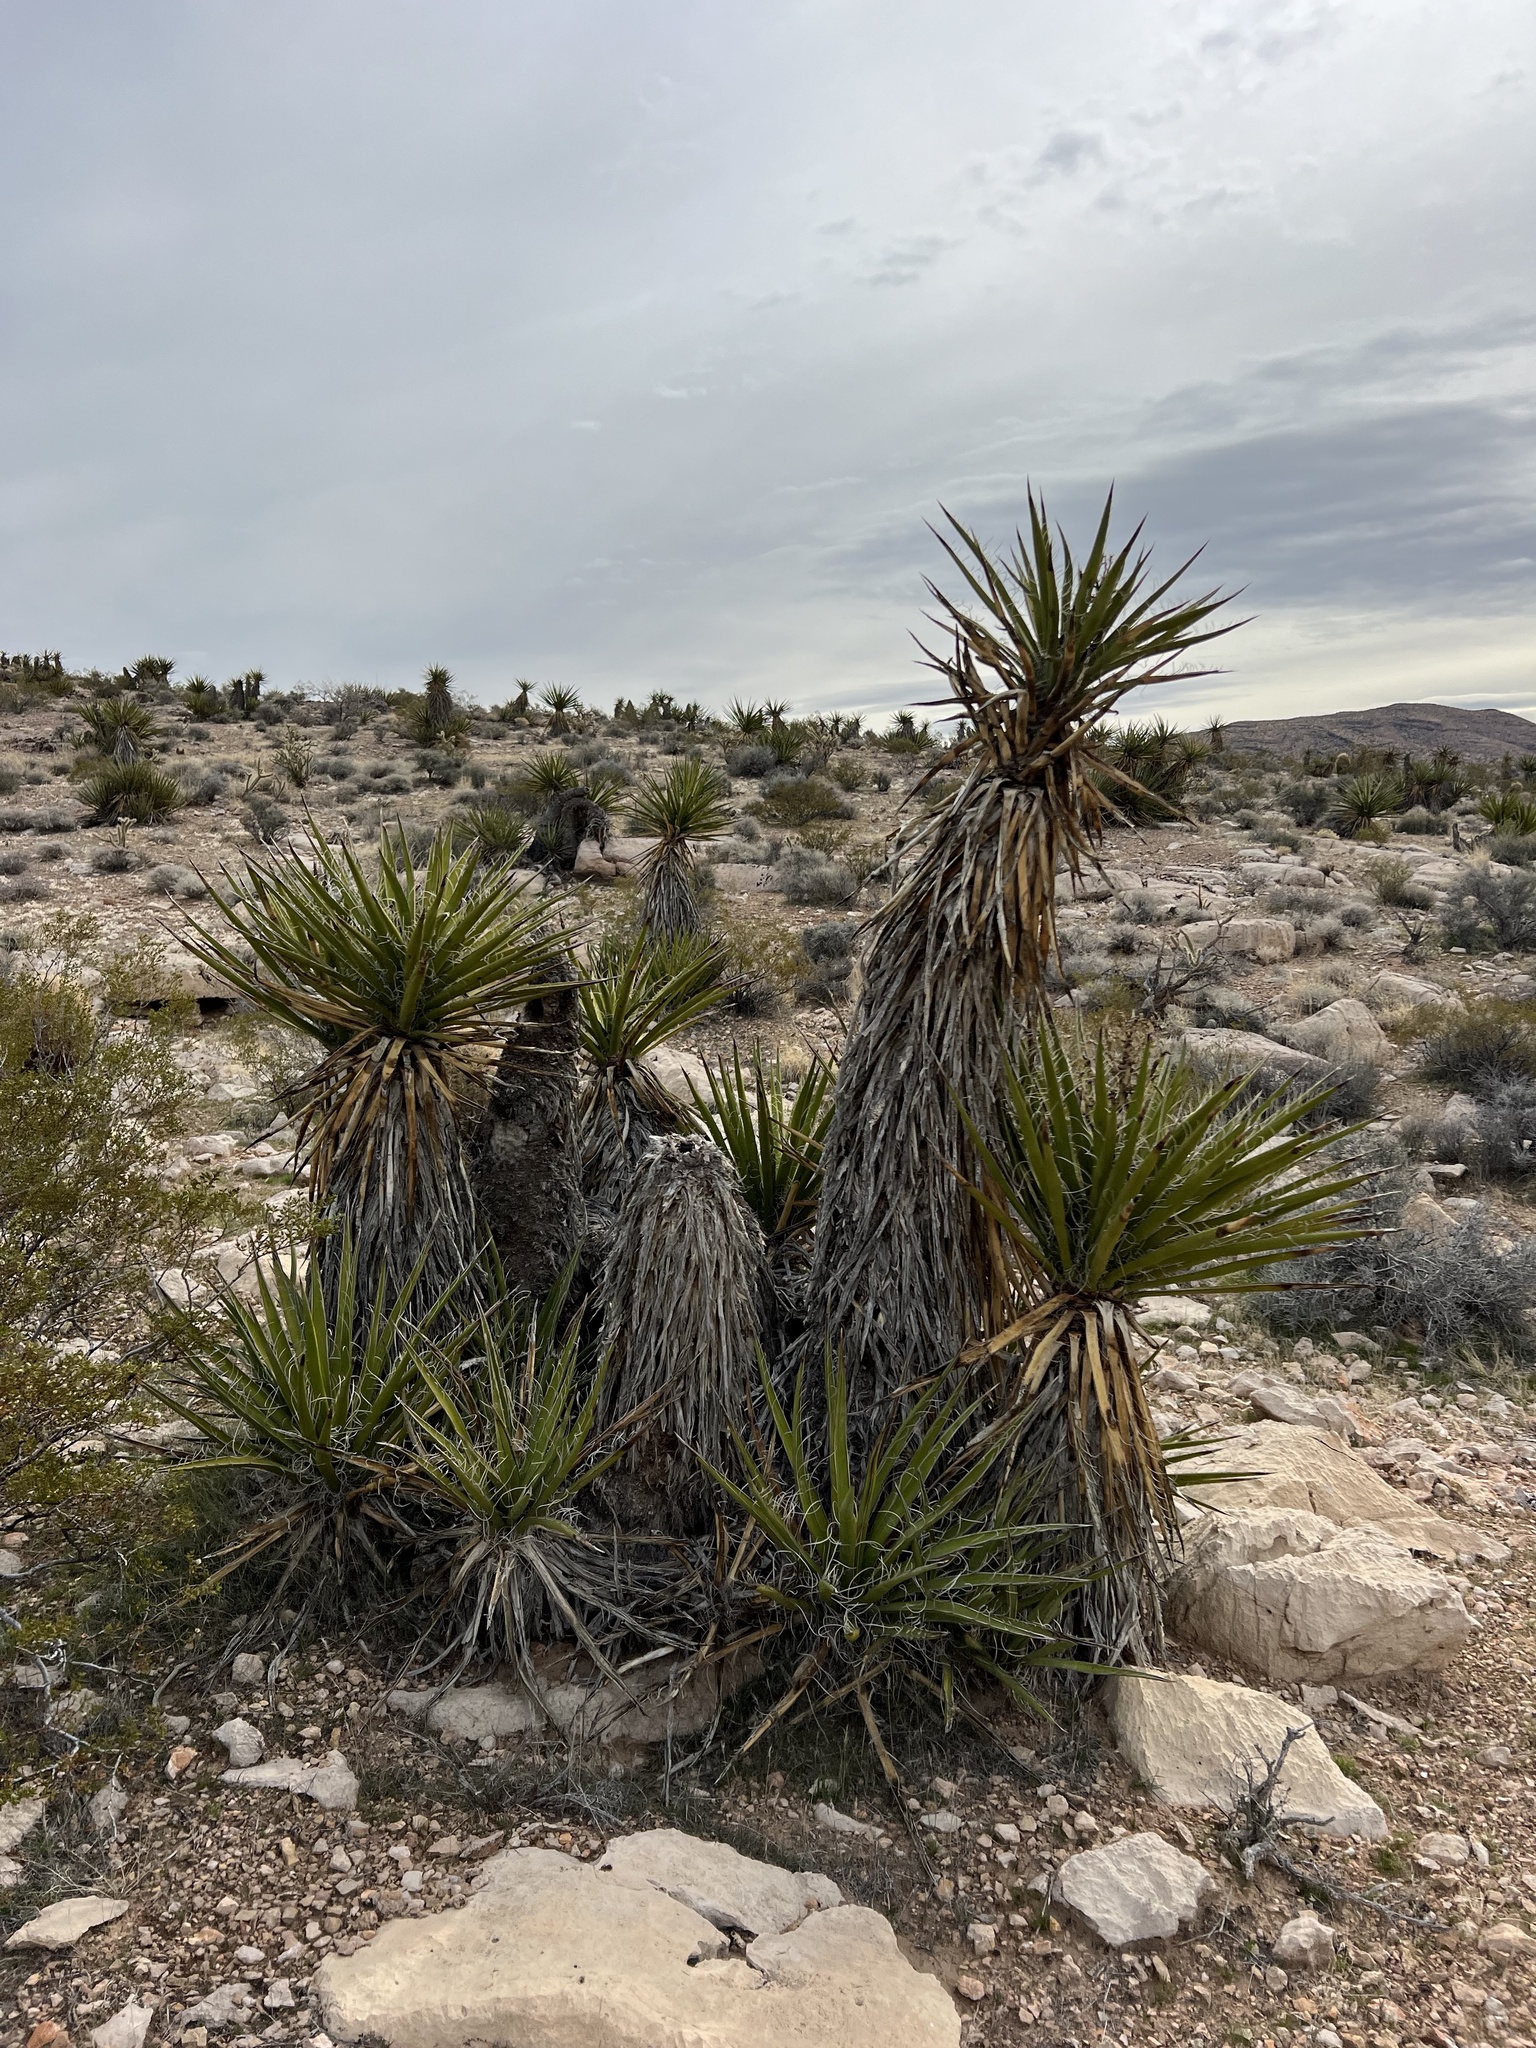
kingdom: Plantae
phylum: Tracheophyta
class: Liliopsida
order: Asparagales
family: Asparagaceae
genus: Yucca
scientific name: Yucca schidigera
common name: Mojave yucca
